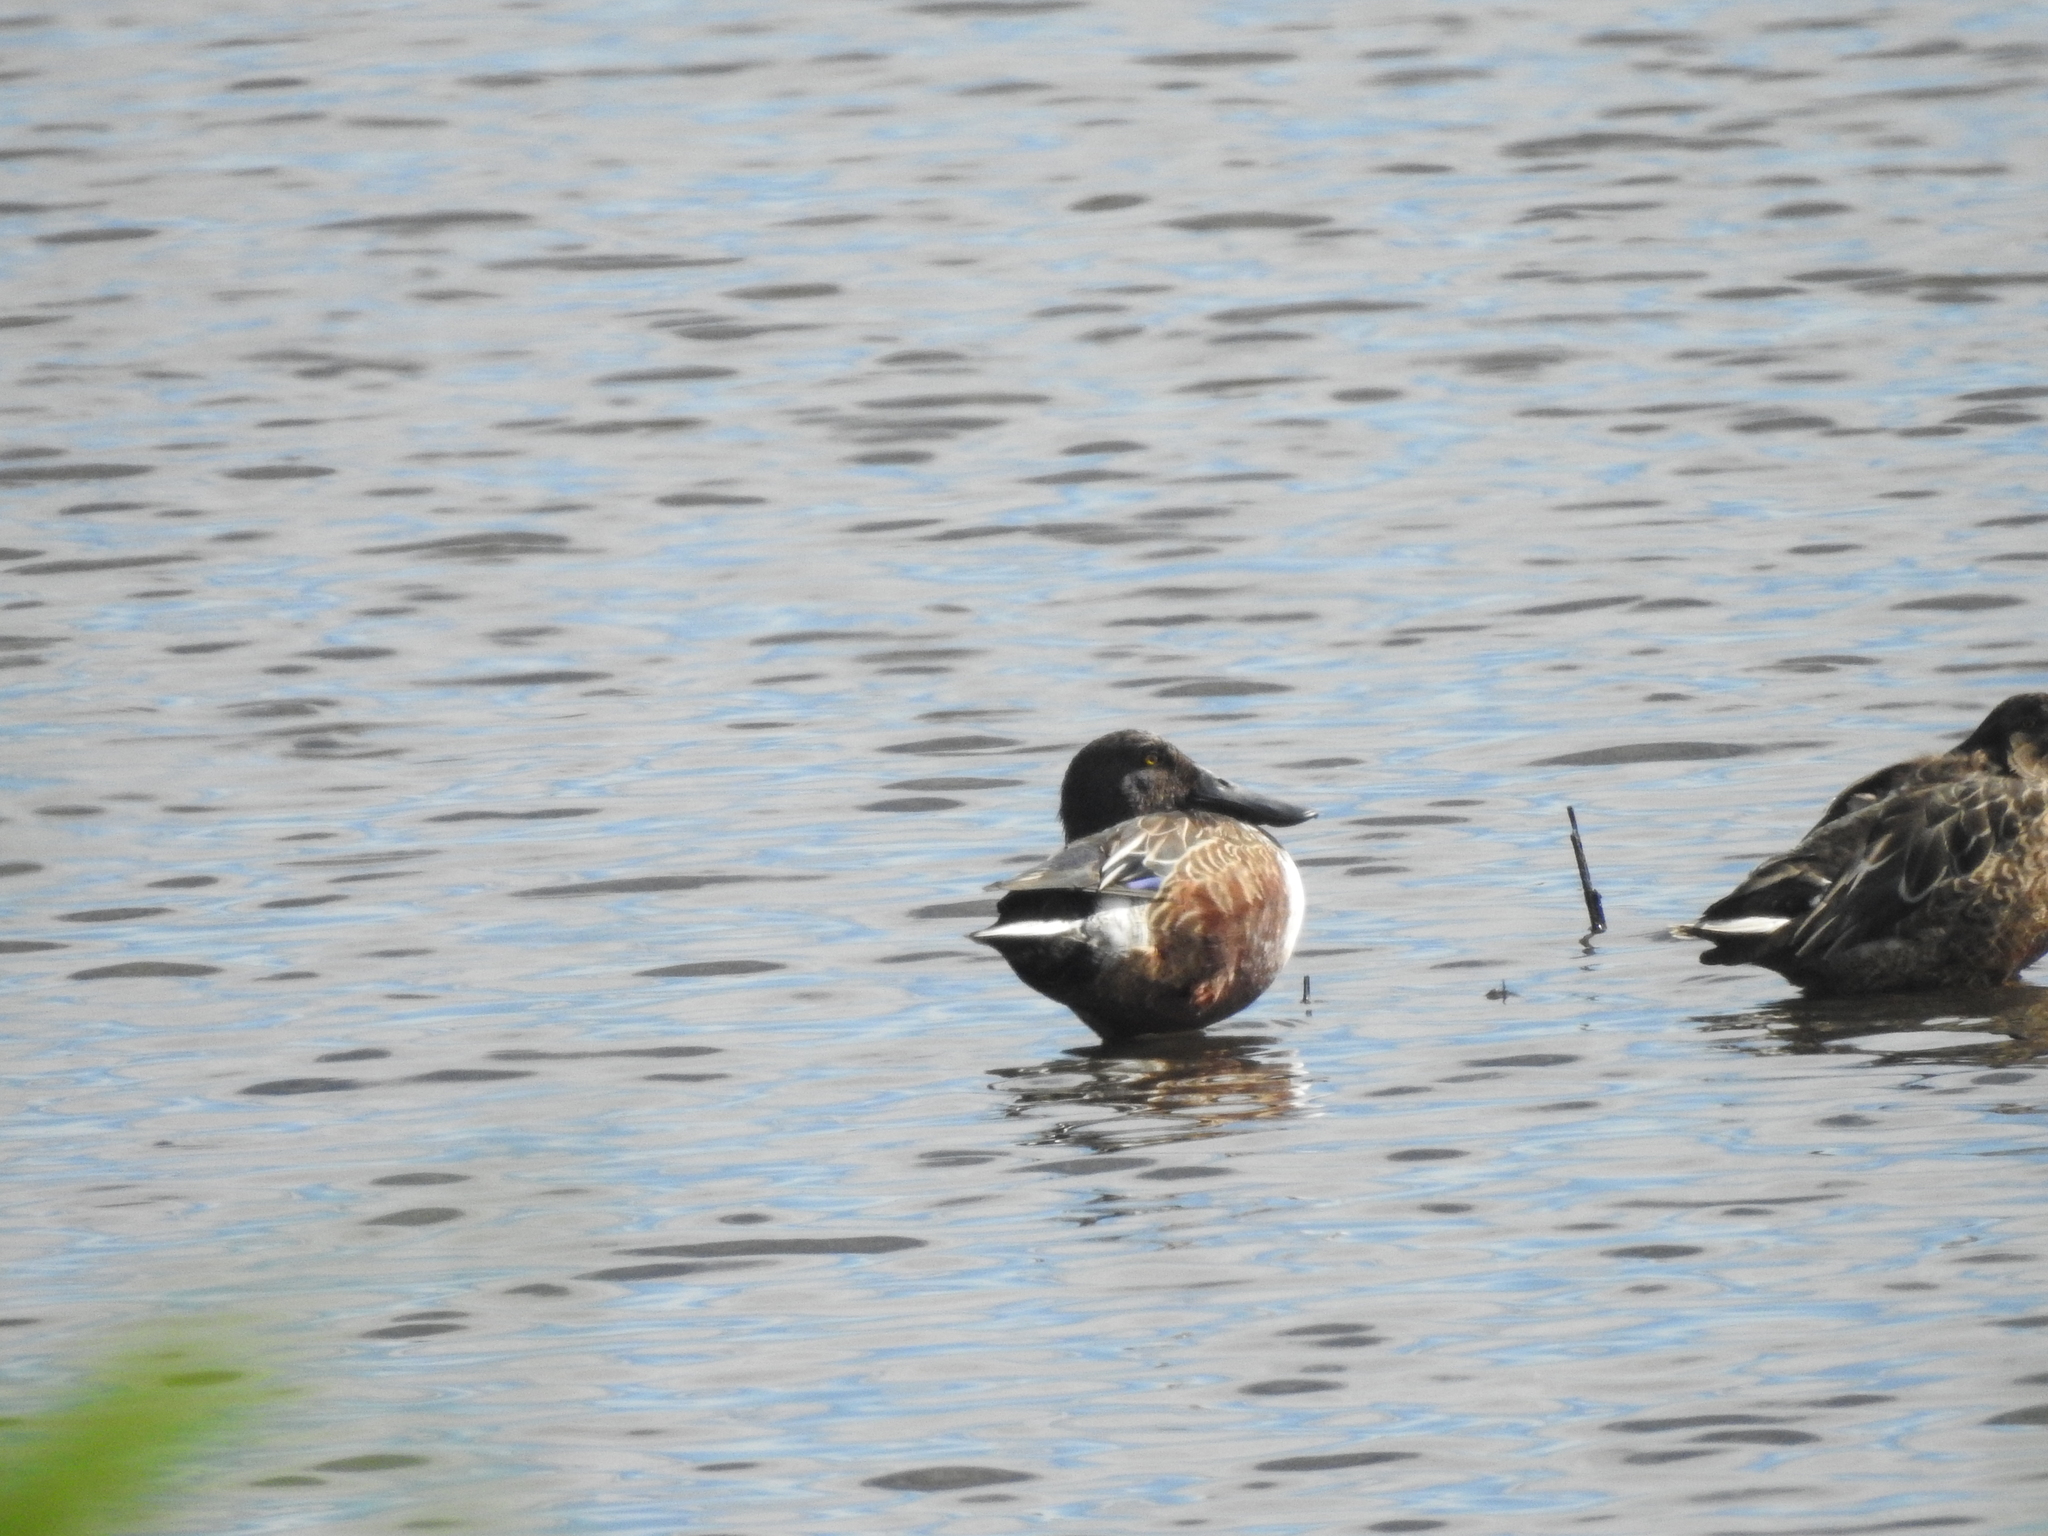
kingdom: Animalia
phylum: Chordata
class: Aves
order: Anseriformes
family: Anatidae
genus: Spatula
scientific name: Spatula clypeata
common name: Northern shoveler
